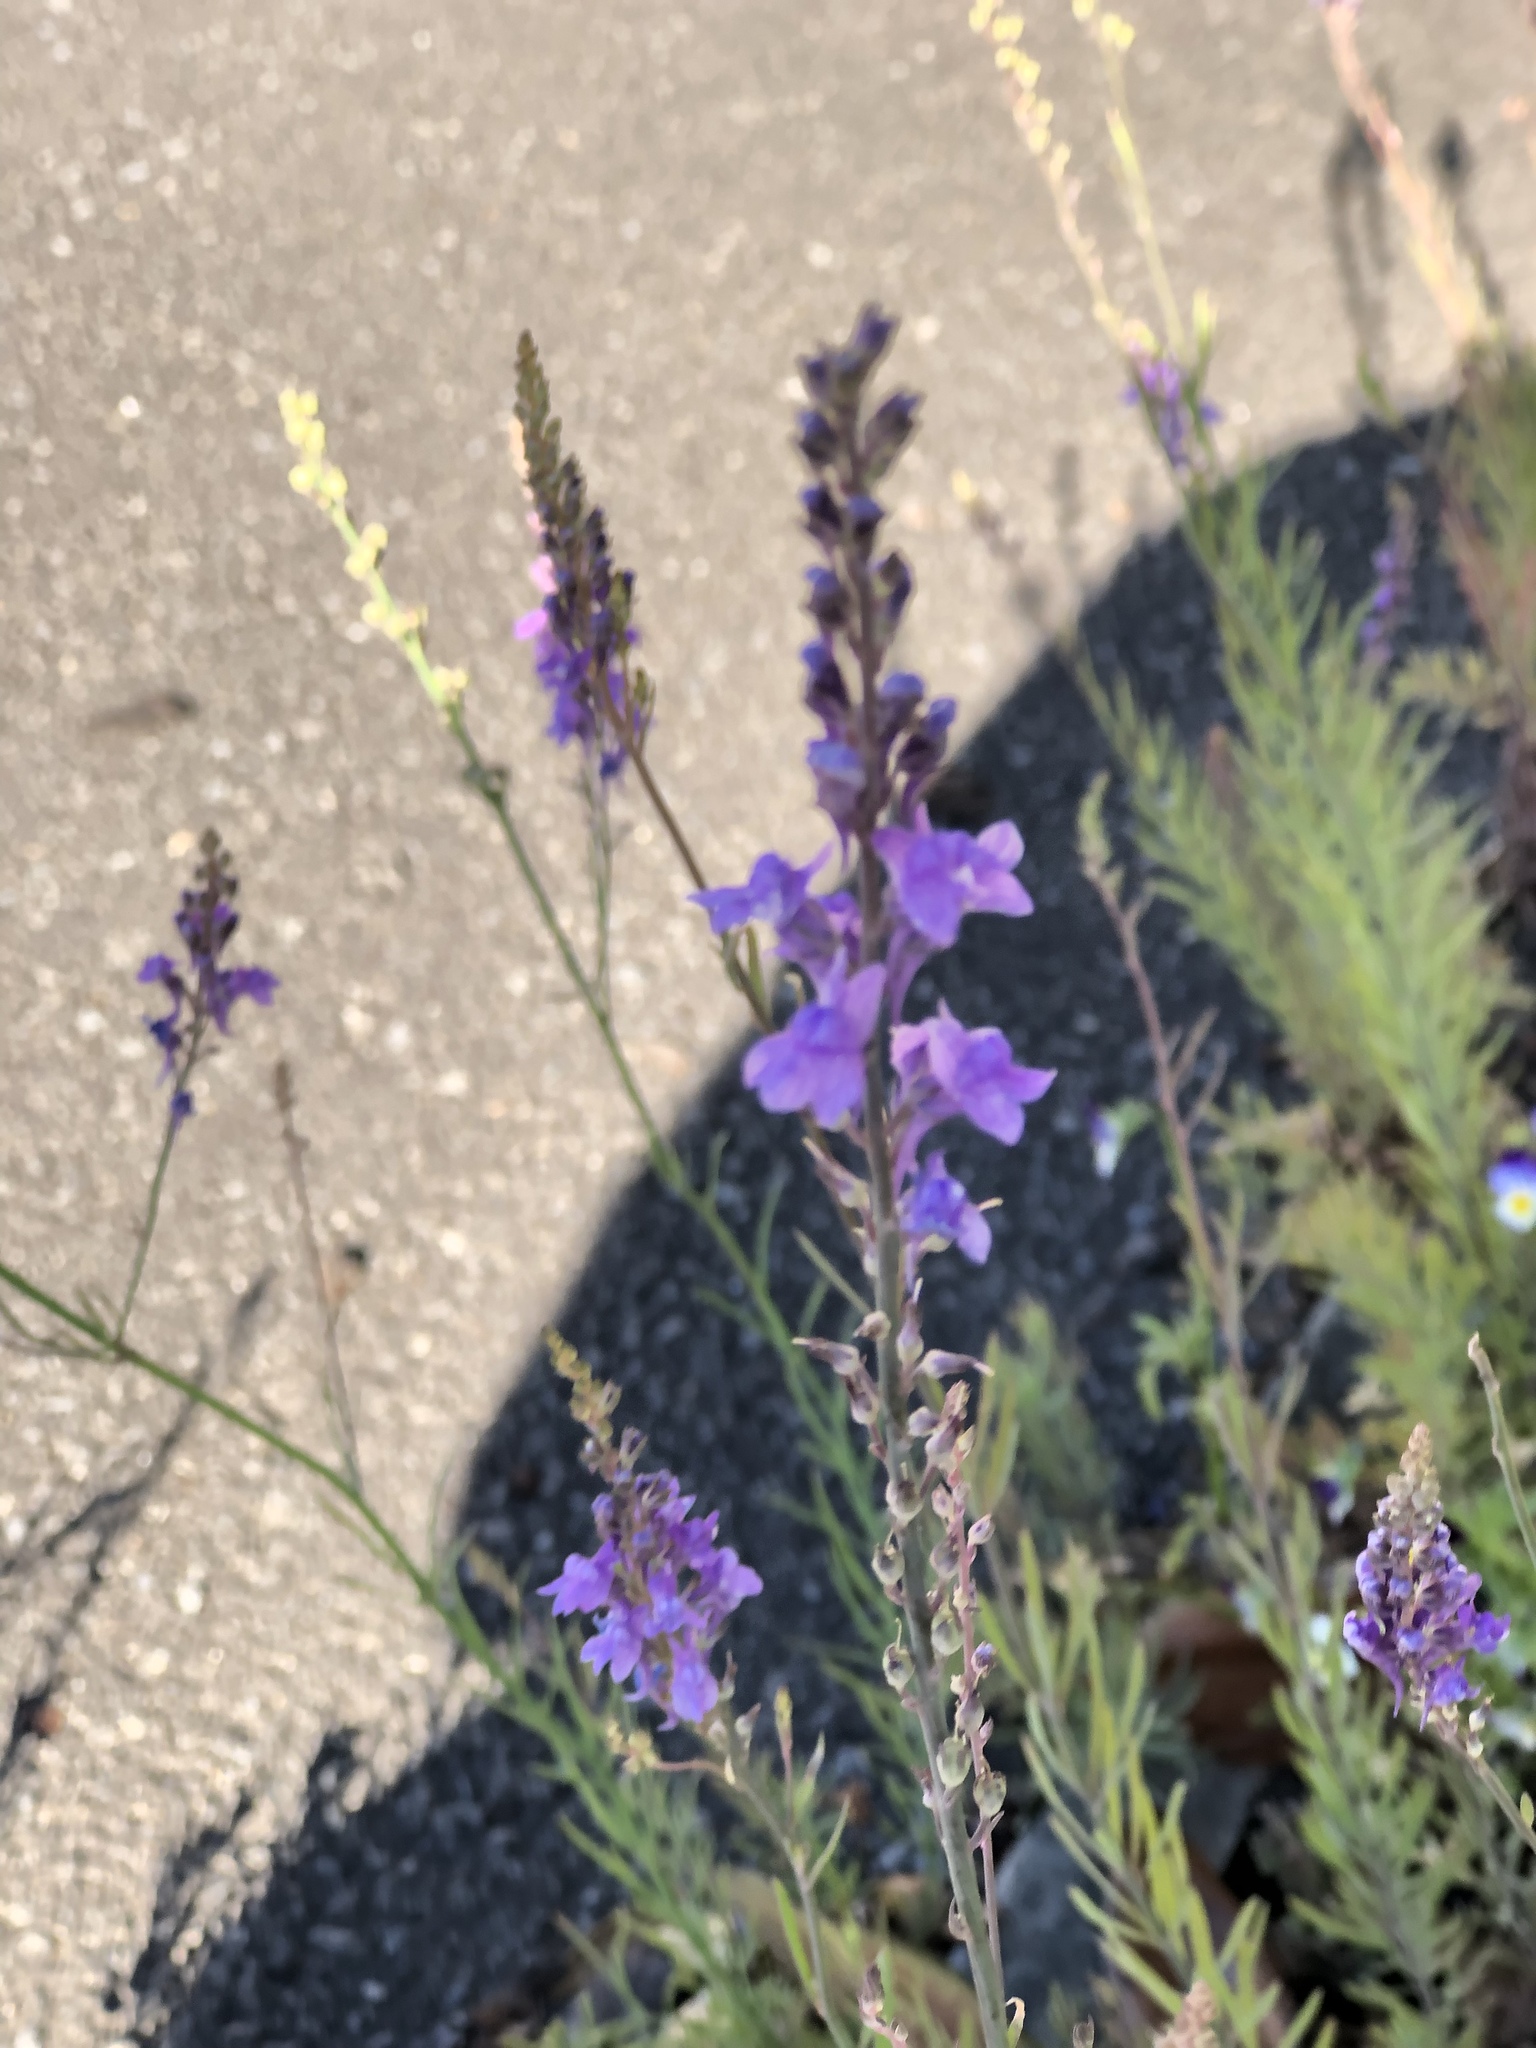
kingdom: Plantae
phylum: Tracheophyta
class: Magnoliopsida
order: Lamiales
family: Plantaginaceae
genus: Linaria
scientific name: Linaria purpurea
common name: Purple toadflax
